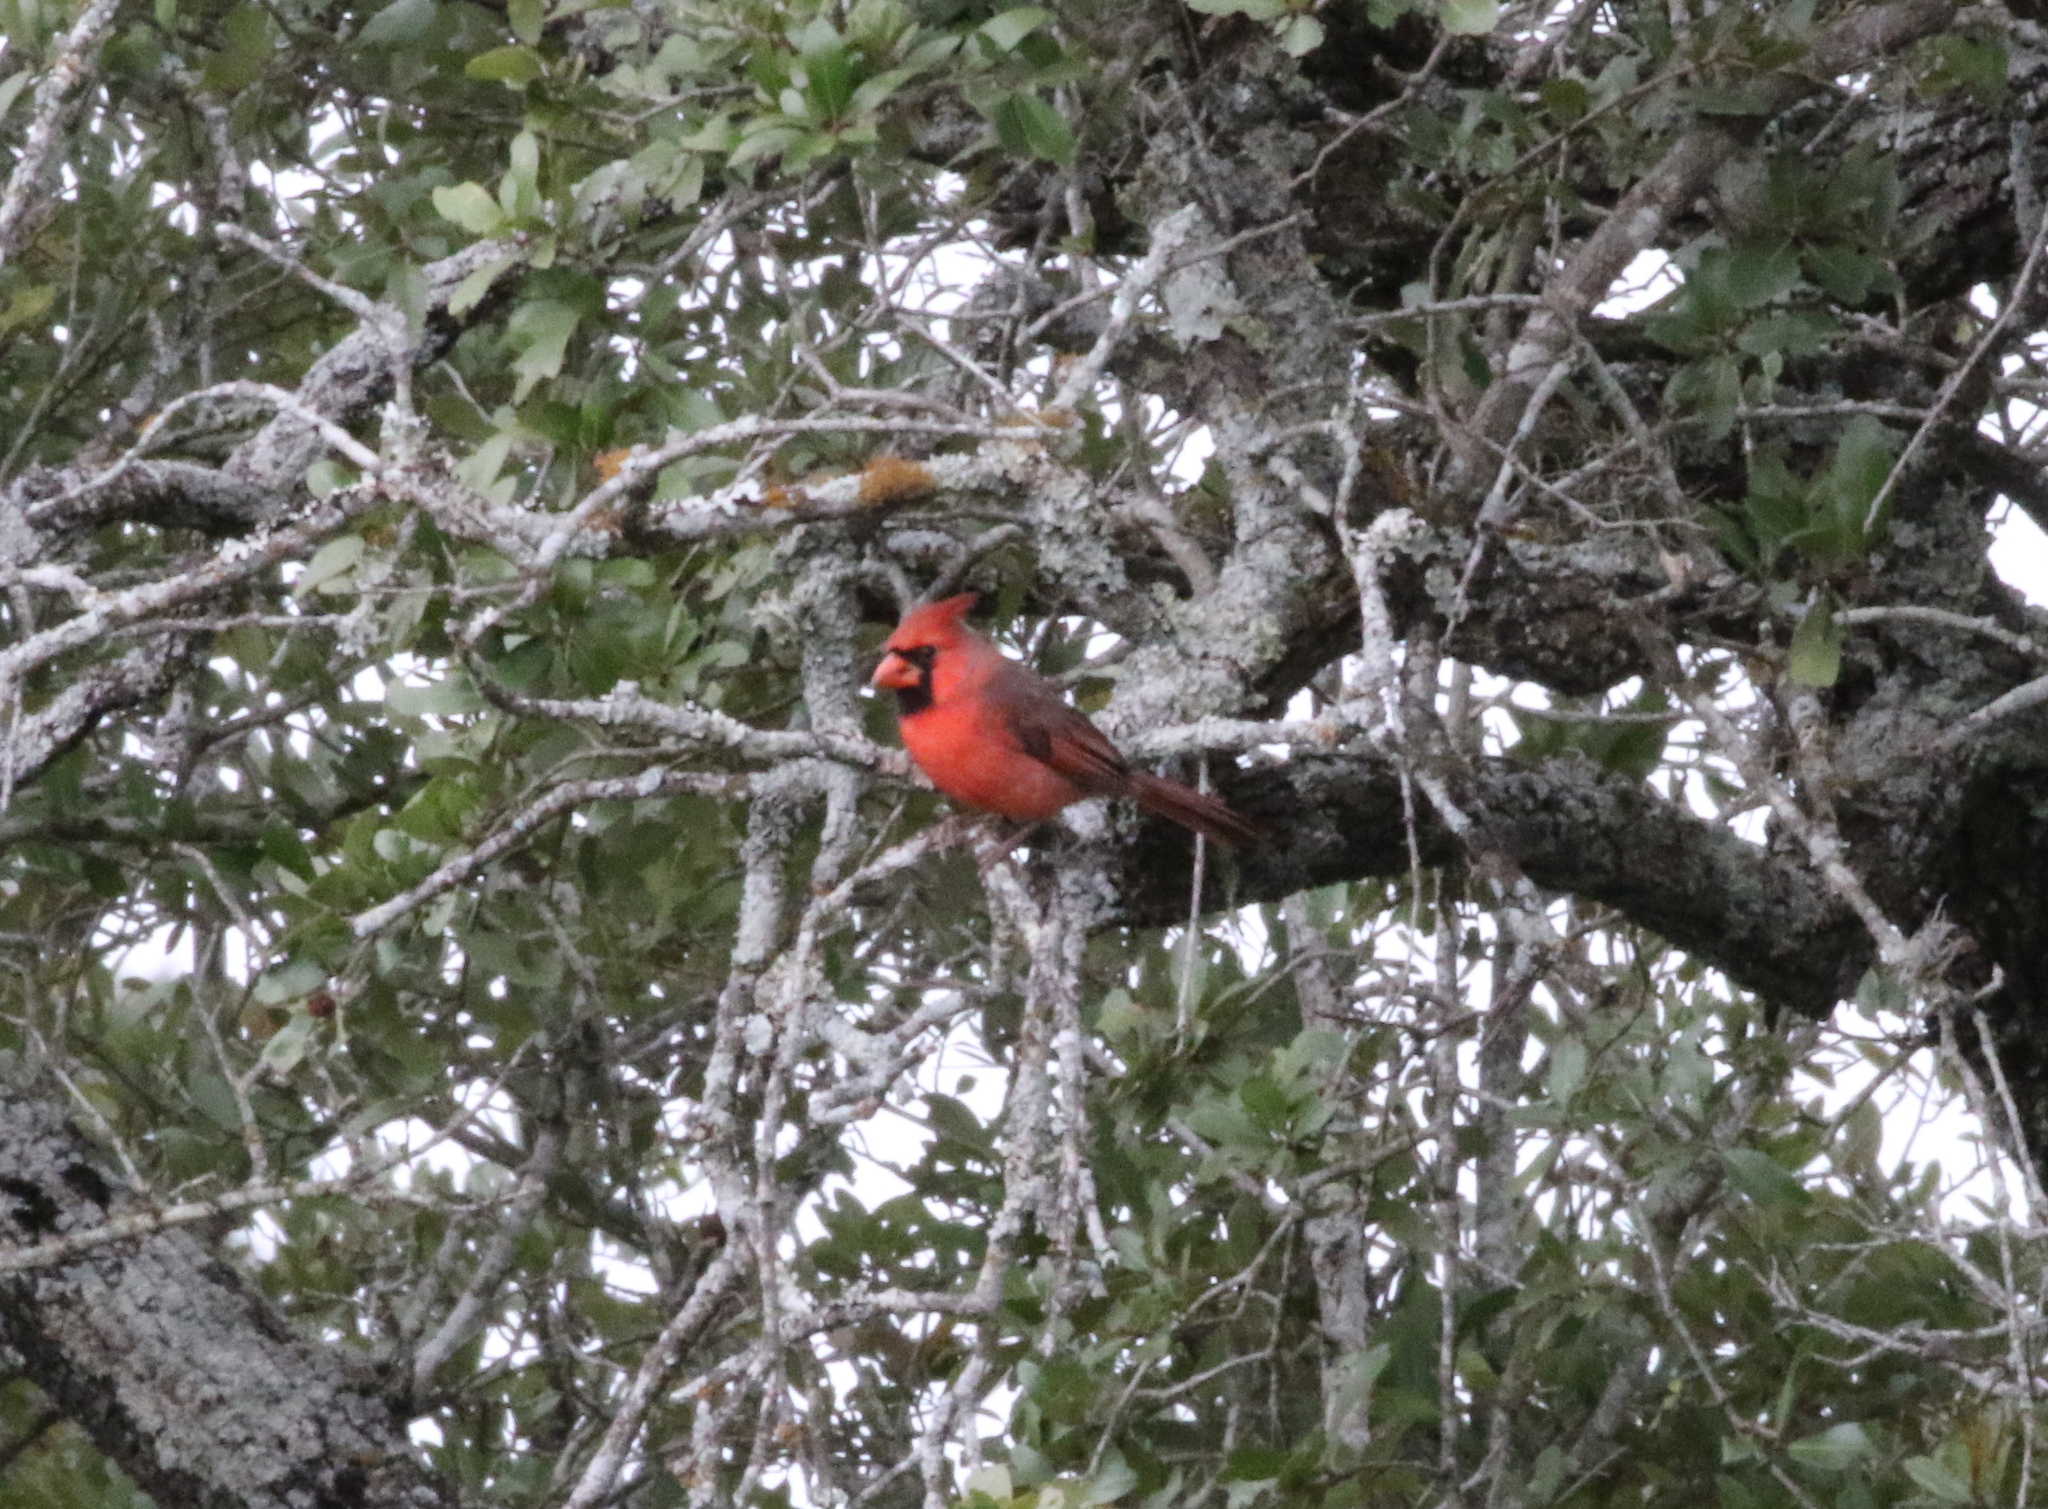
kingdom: Animalia
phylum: Chordata
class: Aves
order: Passeriformes
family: Cardinalidae
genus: Cardinalis
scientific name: Cardinalis cardinalis
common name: Northern cardinal
